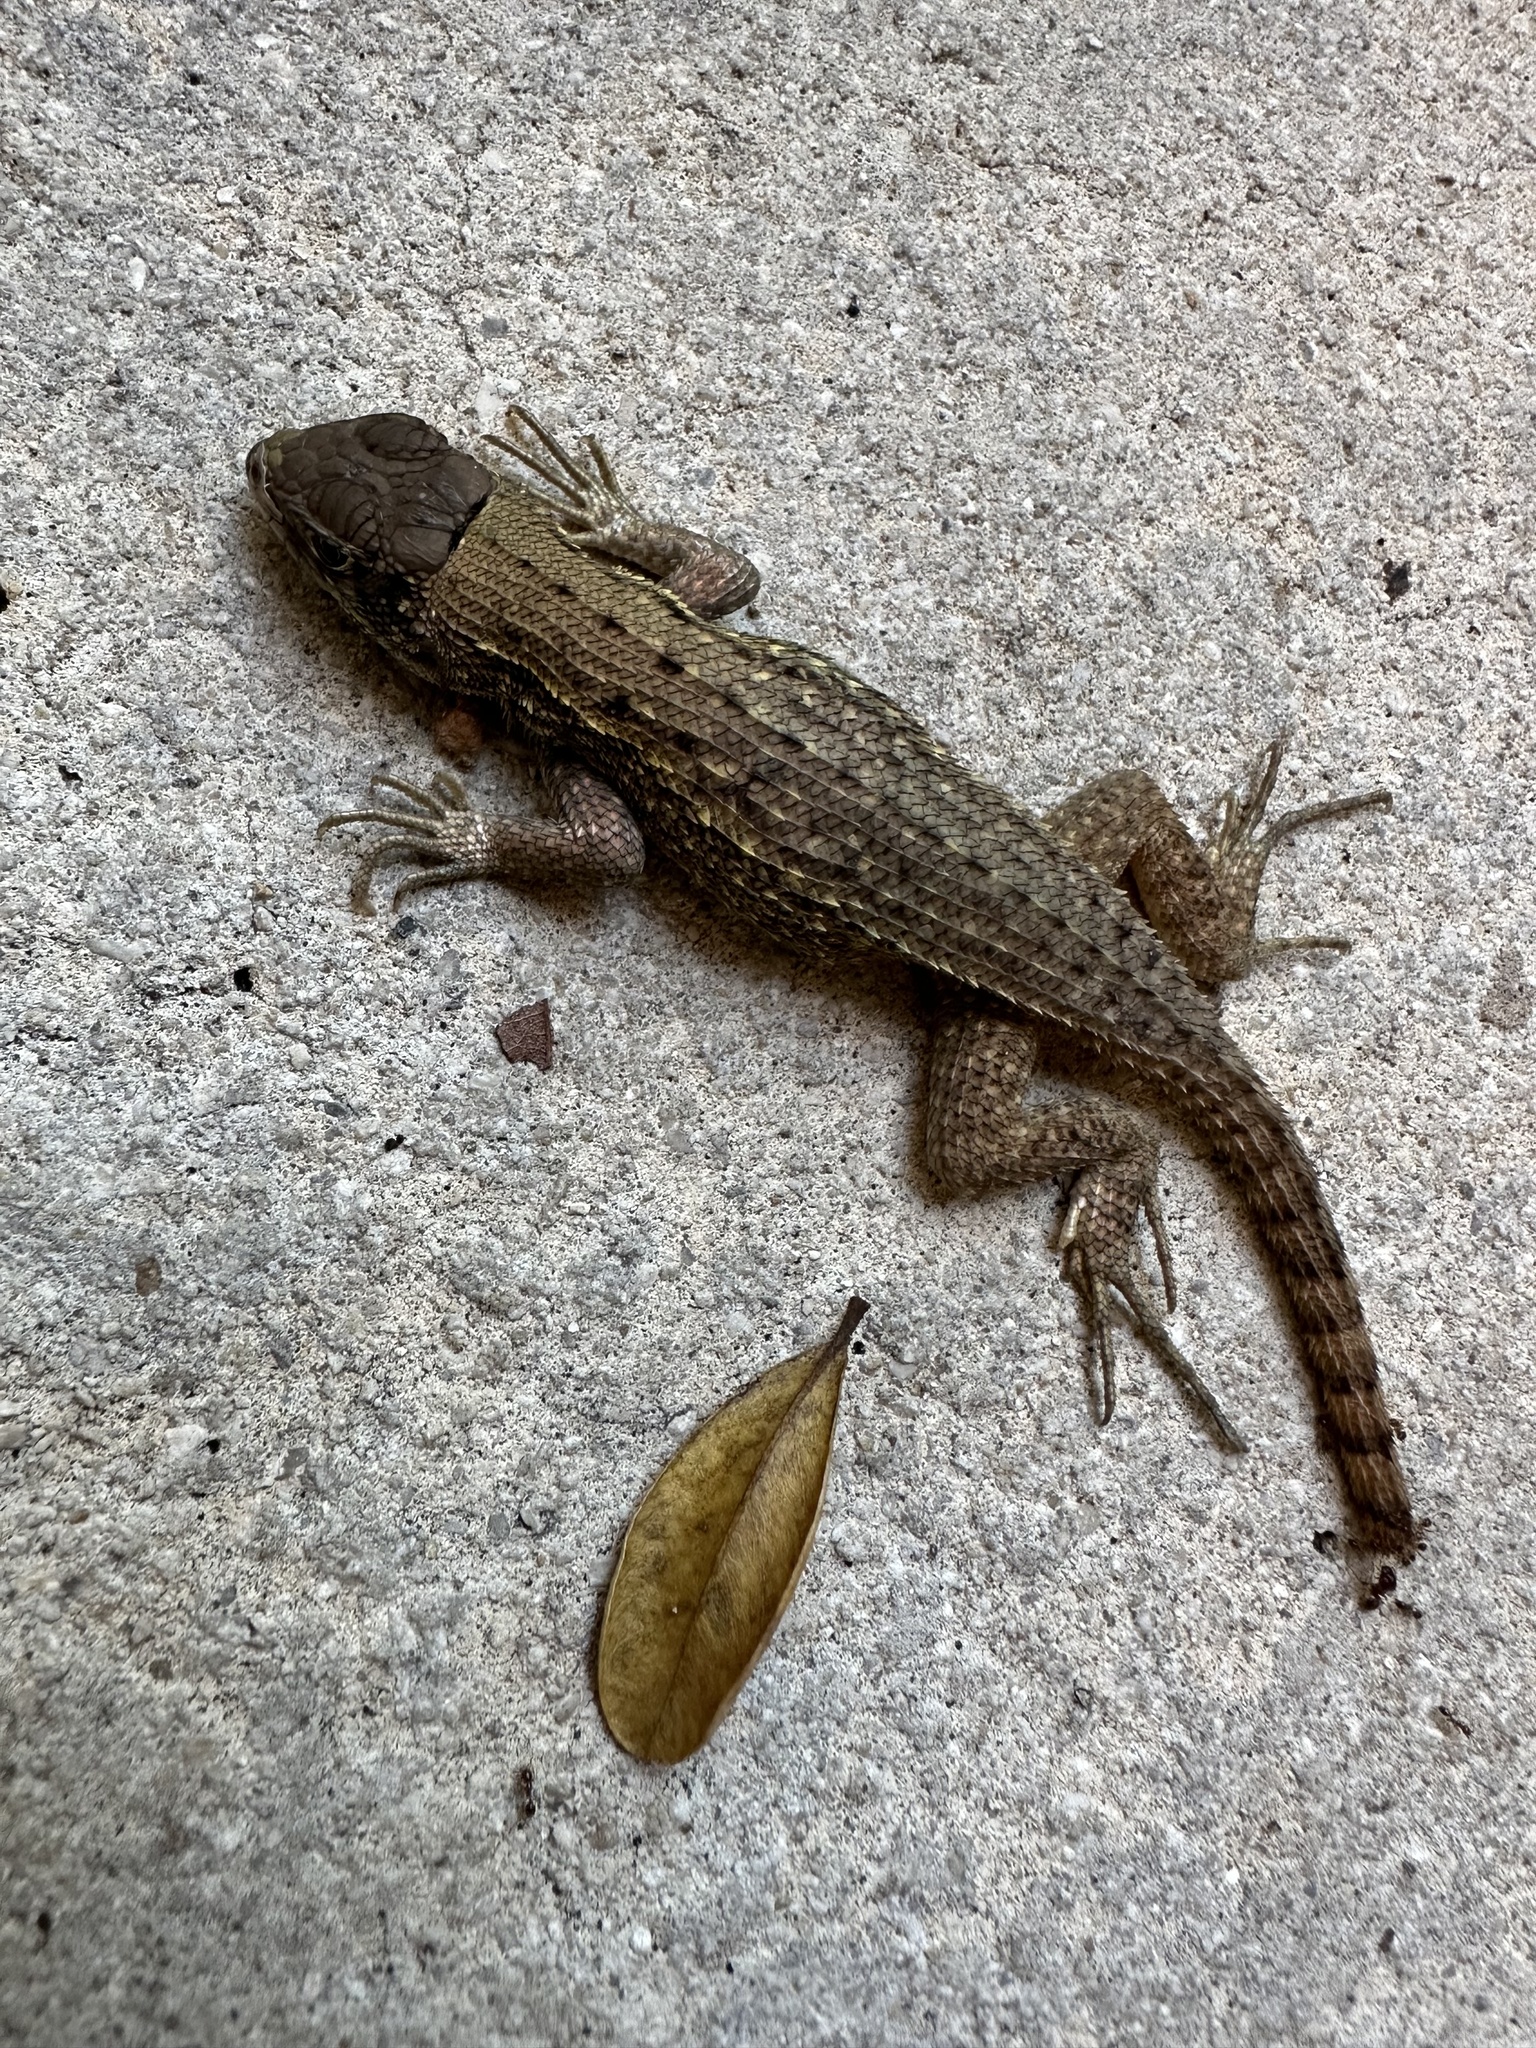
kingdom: Animalia
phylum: Chordata
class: Squamata
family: Leiocephalidae
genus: Leiocephalus
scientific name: Leiocephalus carinatus
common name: Northern curly-tailed lizard
